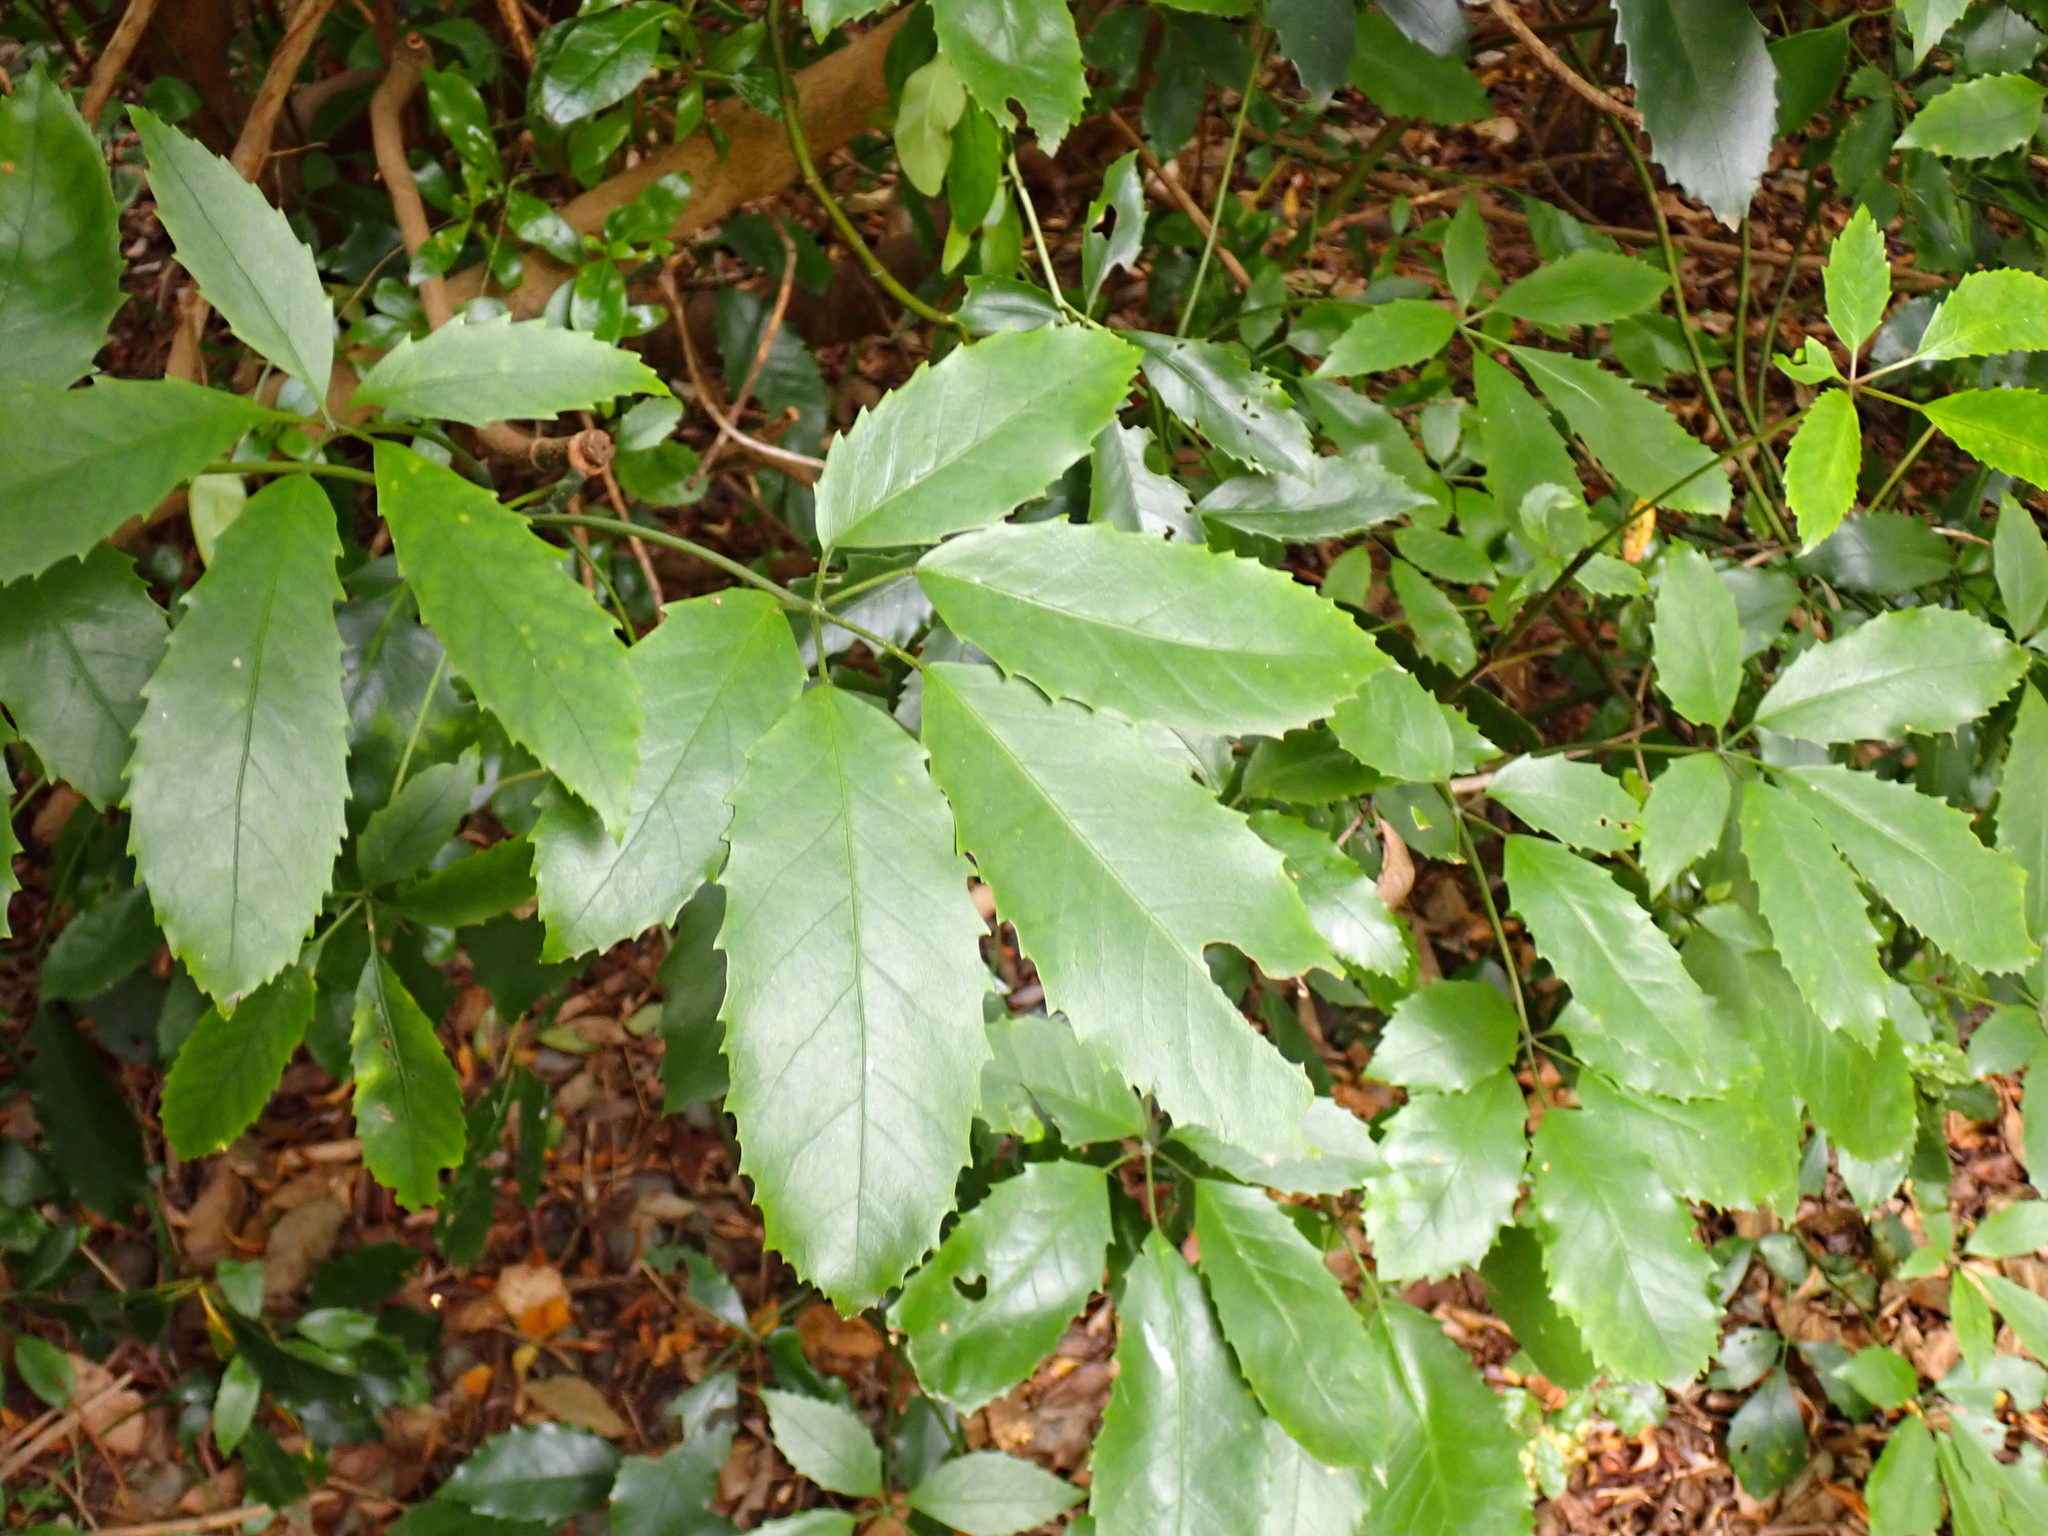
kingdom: Plantae
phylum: Tracheophyta
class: Magnoliopsida
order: Apiales
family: Araliaceae
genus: Neopanax
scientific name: Neopanax arboreus
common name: Five-fingers
